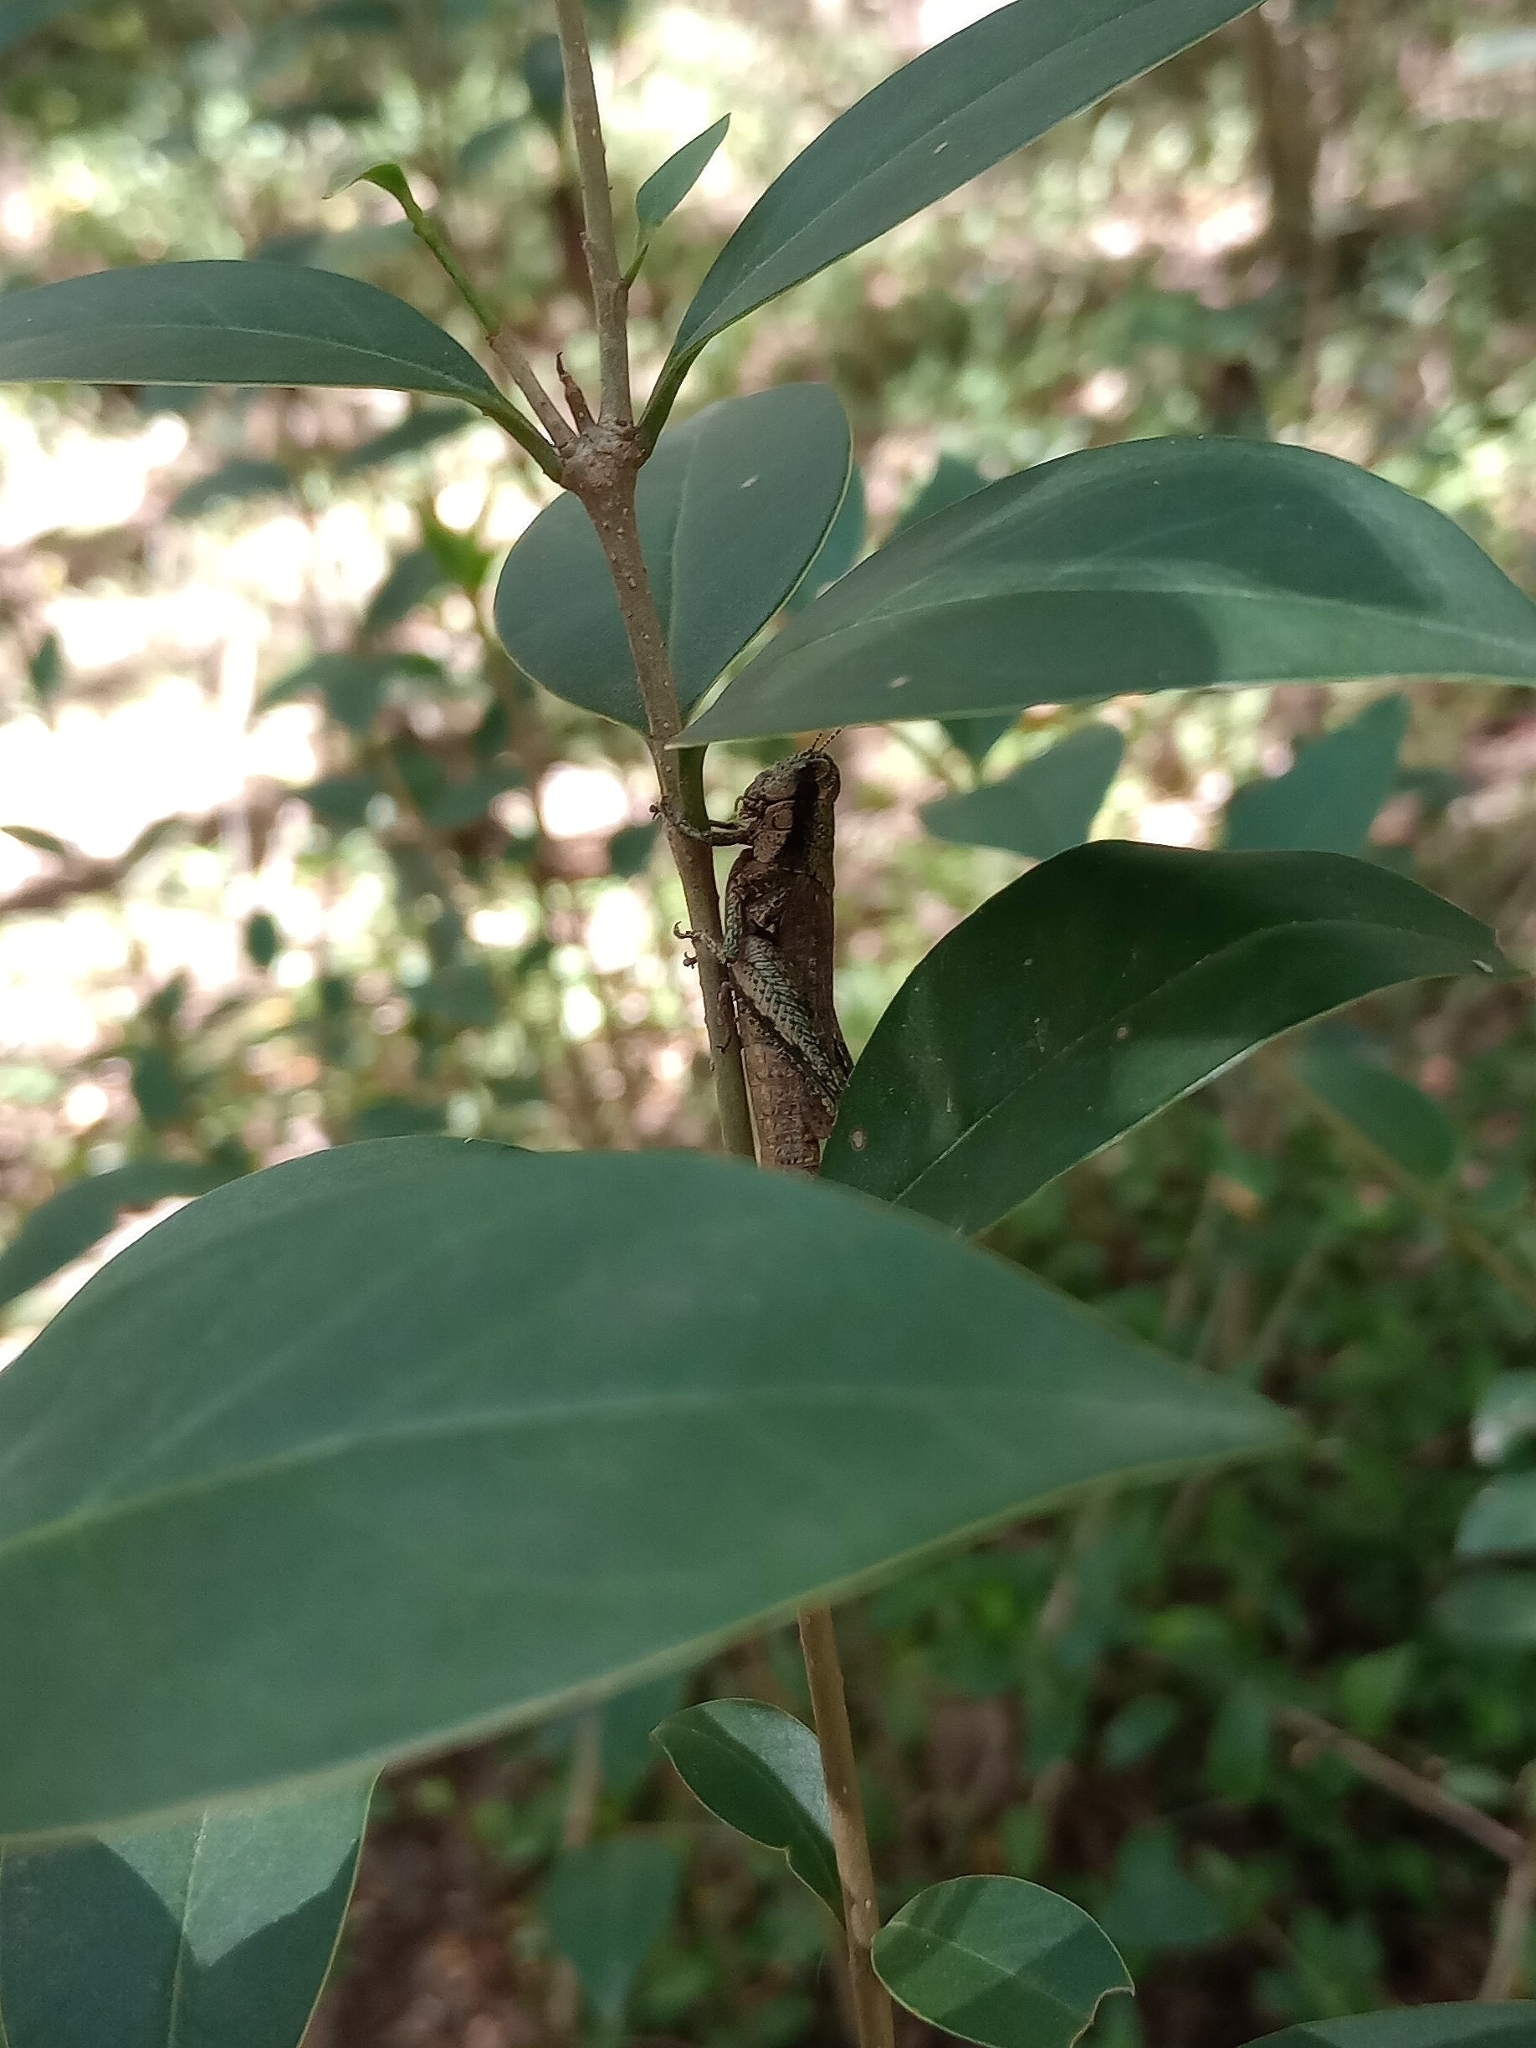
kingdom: Animalia
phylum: Arthropoda
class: Insecta
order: Orthoptera
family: Acrididae
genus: Ronderosia
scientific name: Ronderosia bergii
